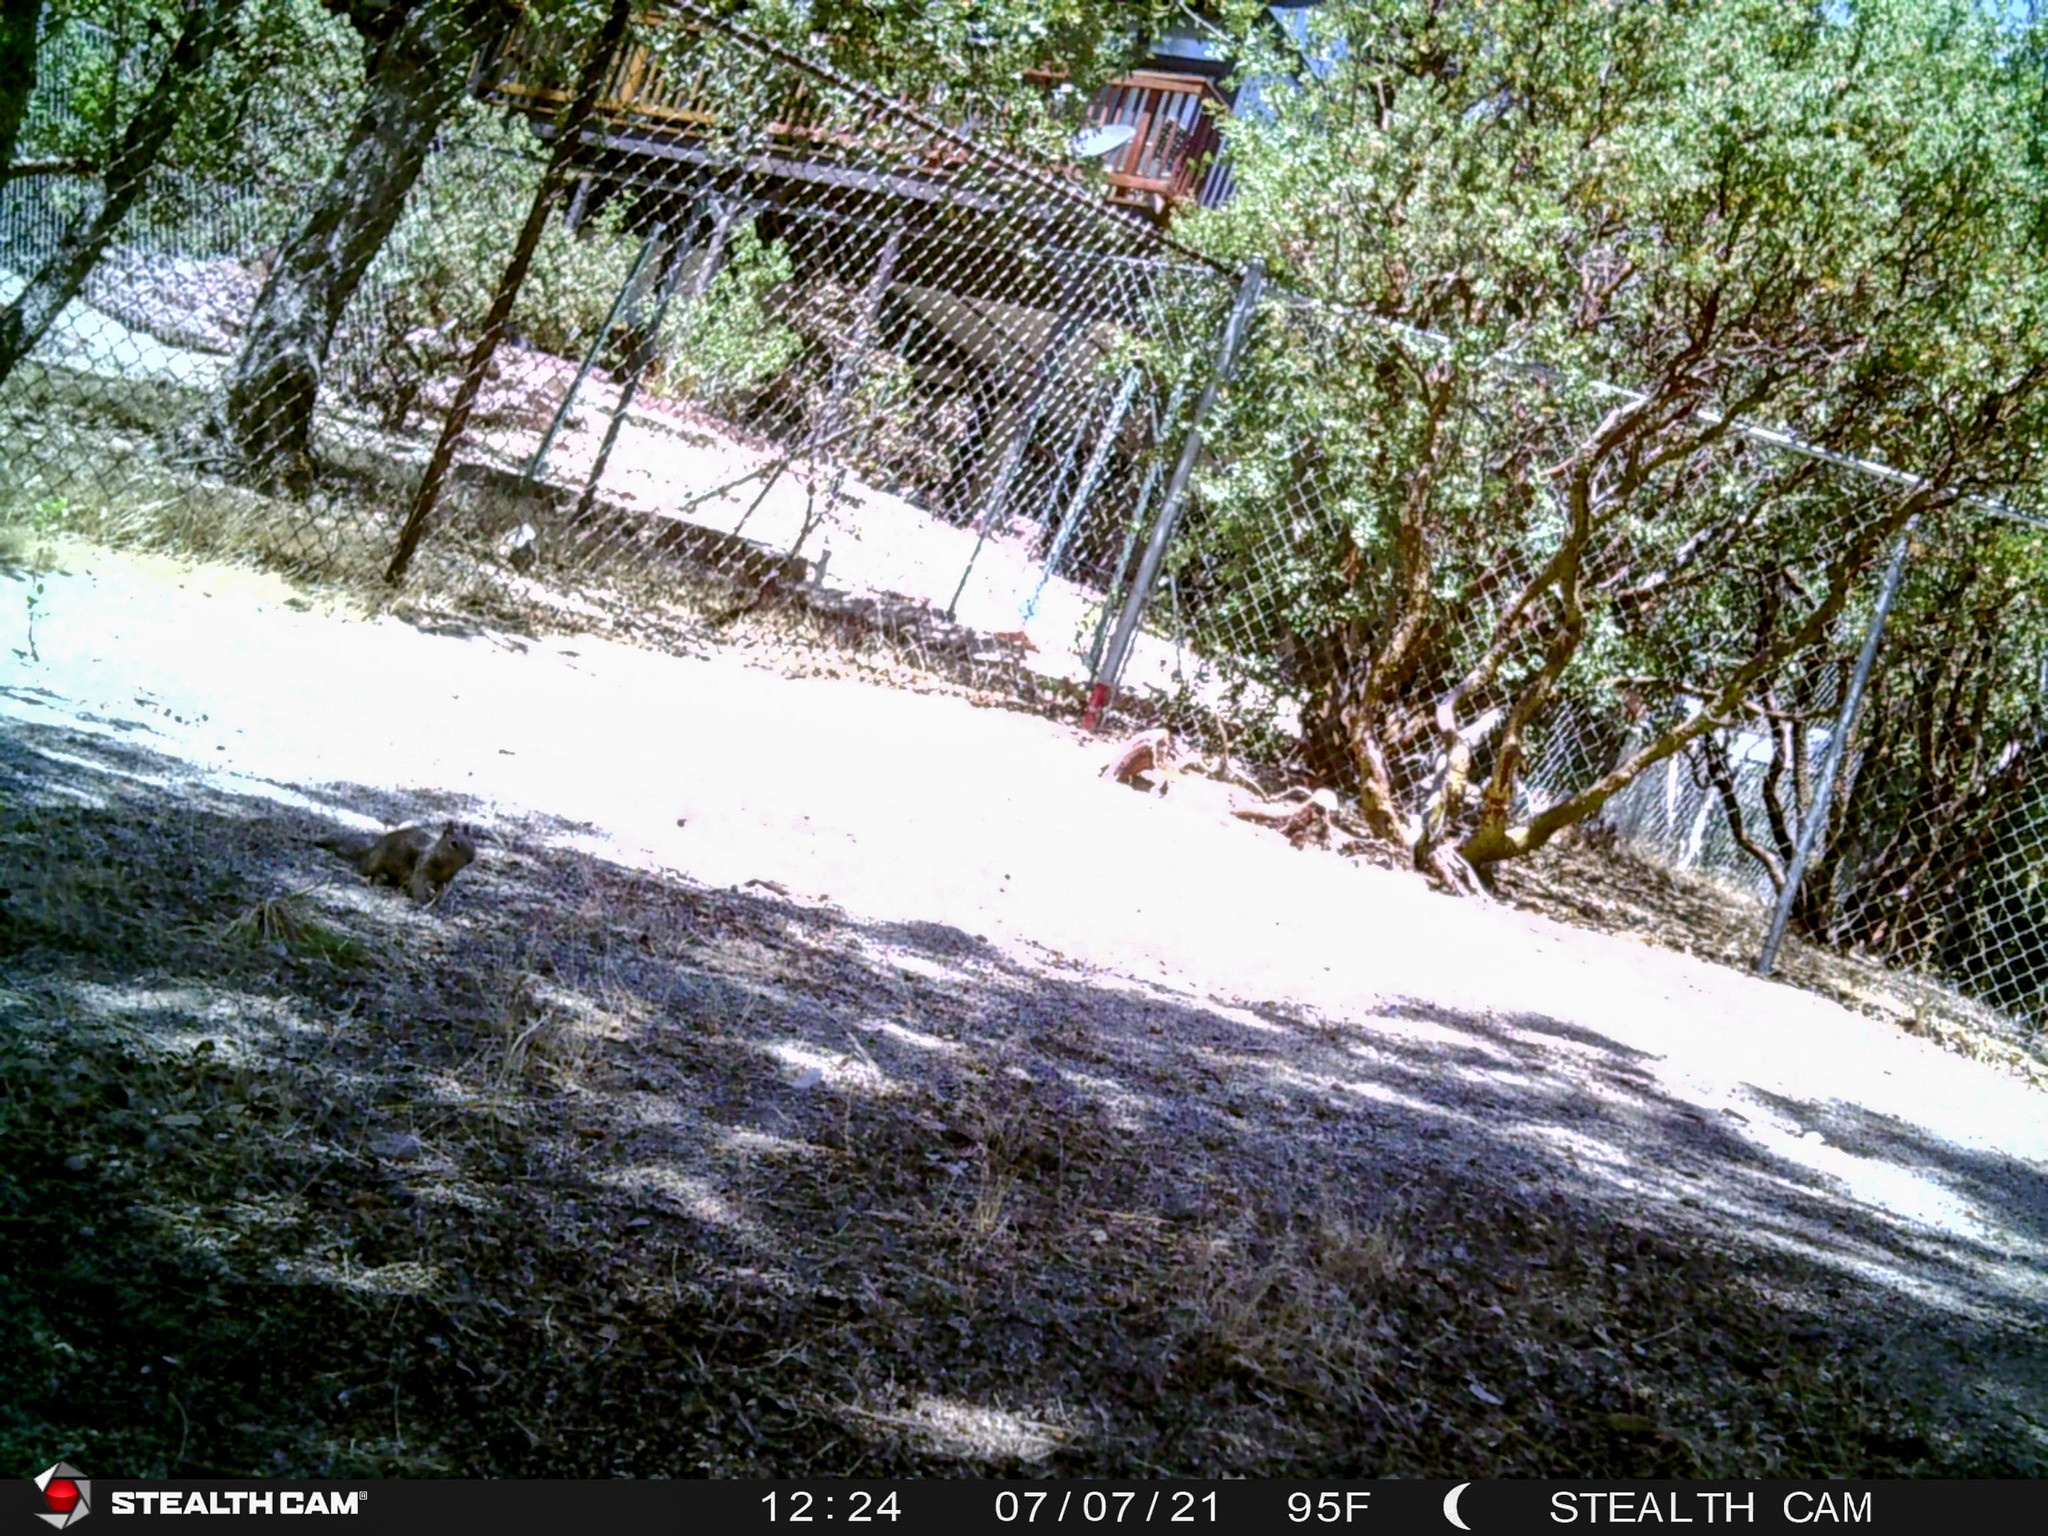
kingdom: Animalia
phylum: Chordata
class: Mammalia
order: Rodentia
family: Sciuridae
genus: Otospermophilus
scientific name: Otospermophilus beecheyi
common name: California ground squirrel
